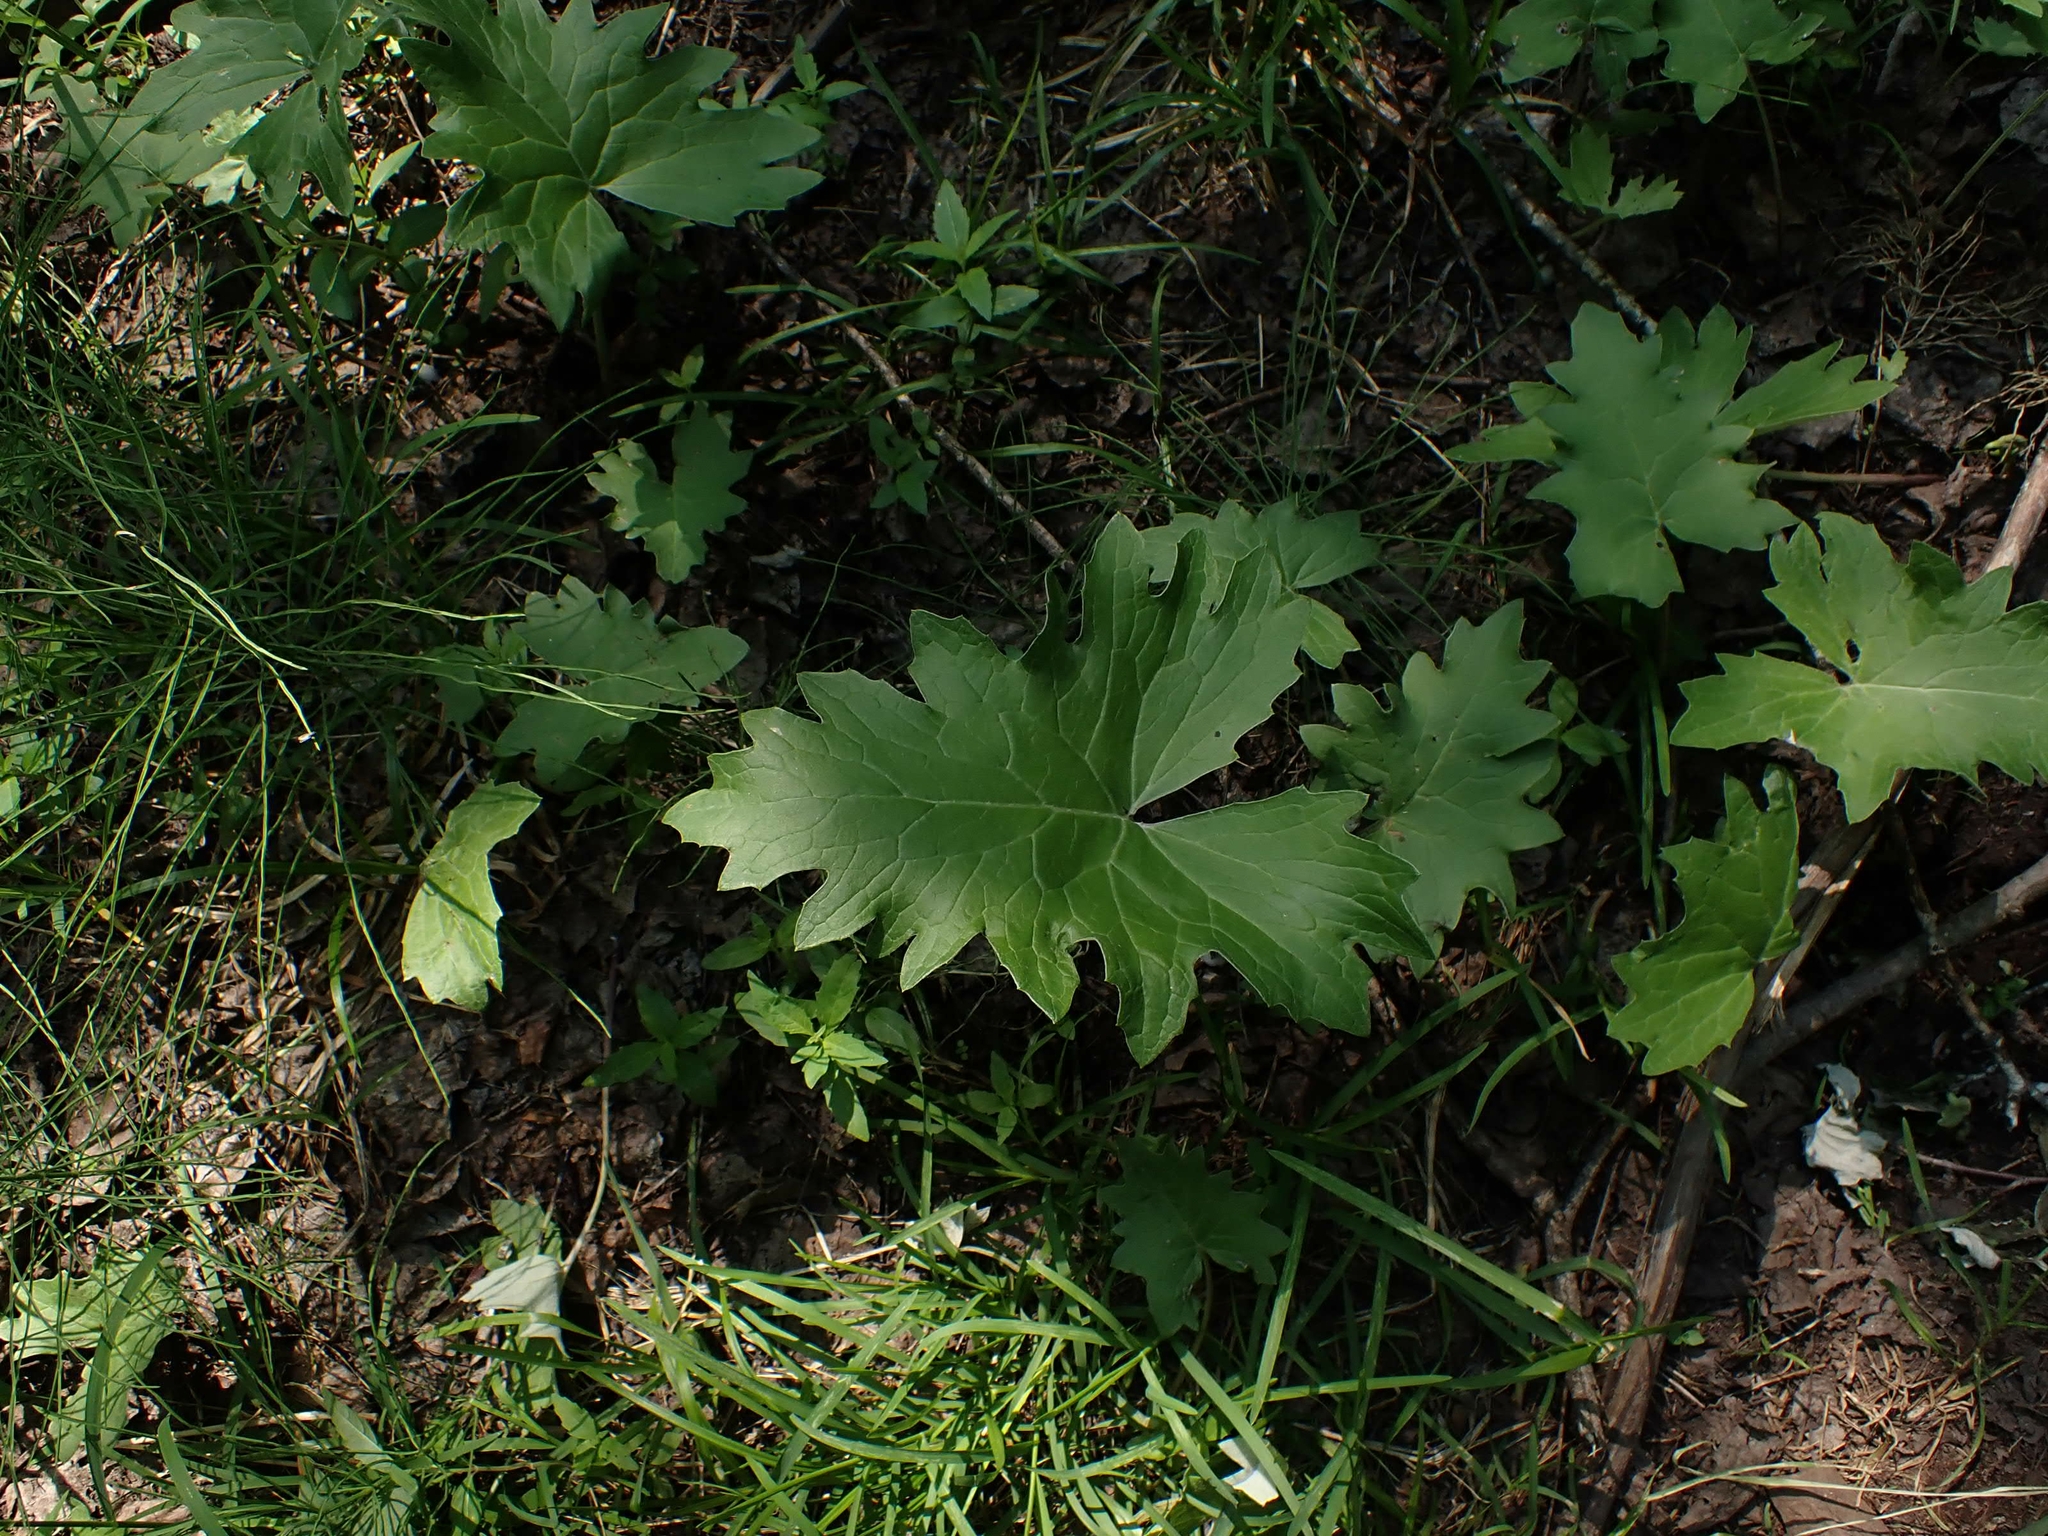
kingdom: Plantae
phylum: Tracheophyta
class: Magnoliopsida
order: Asterales
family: Asteraceae
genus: Petasites
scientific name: Petasites frigidus
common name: Arctic butterbur
